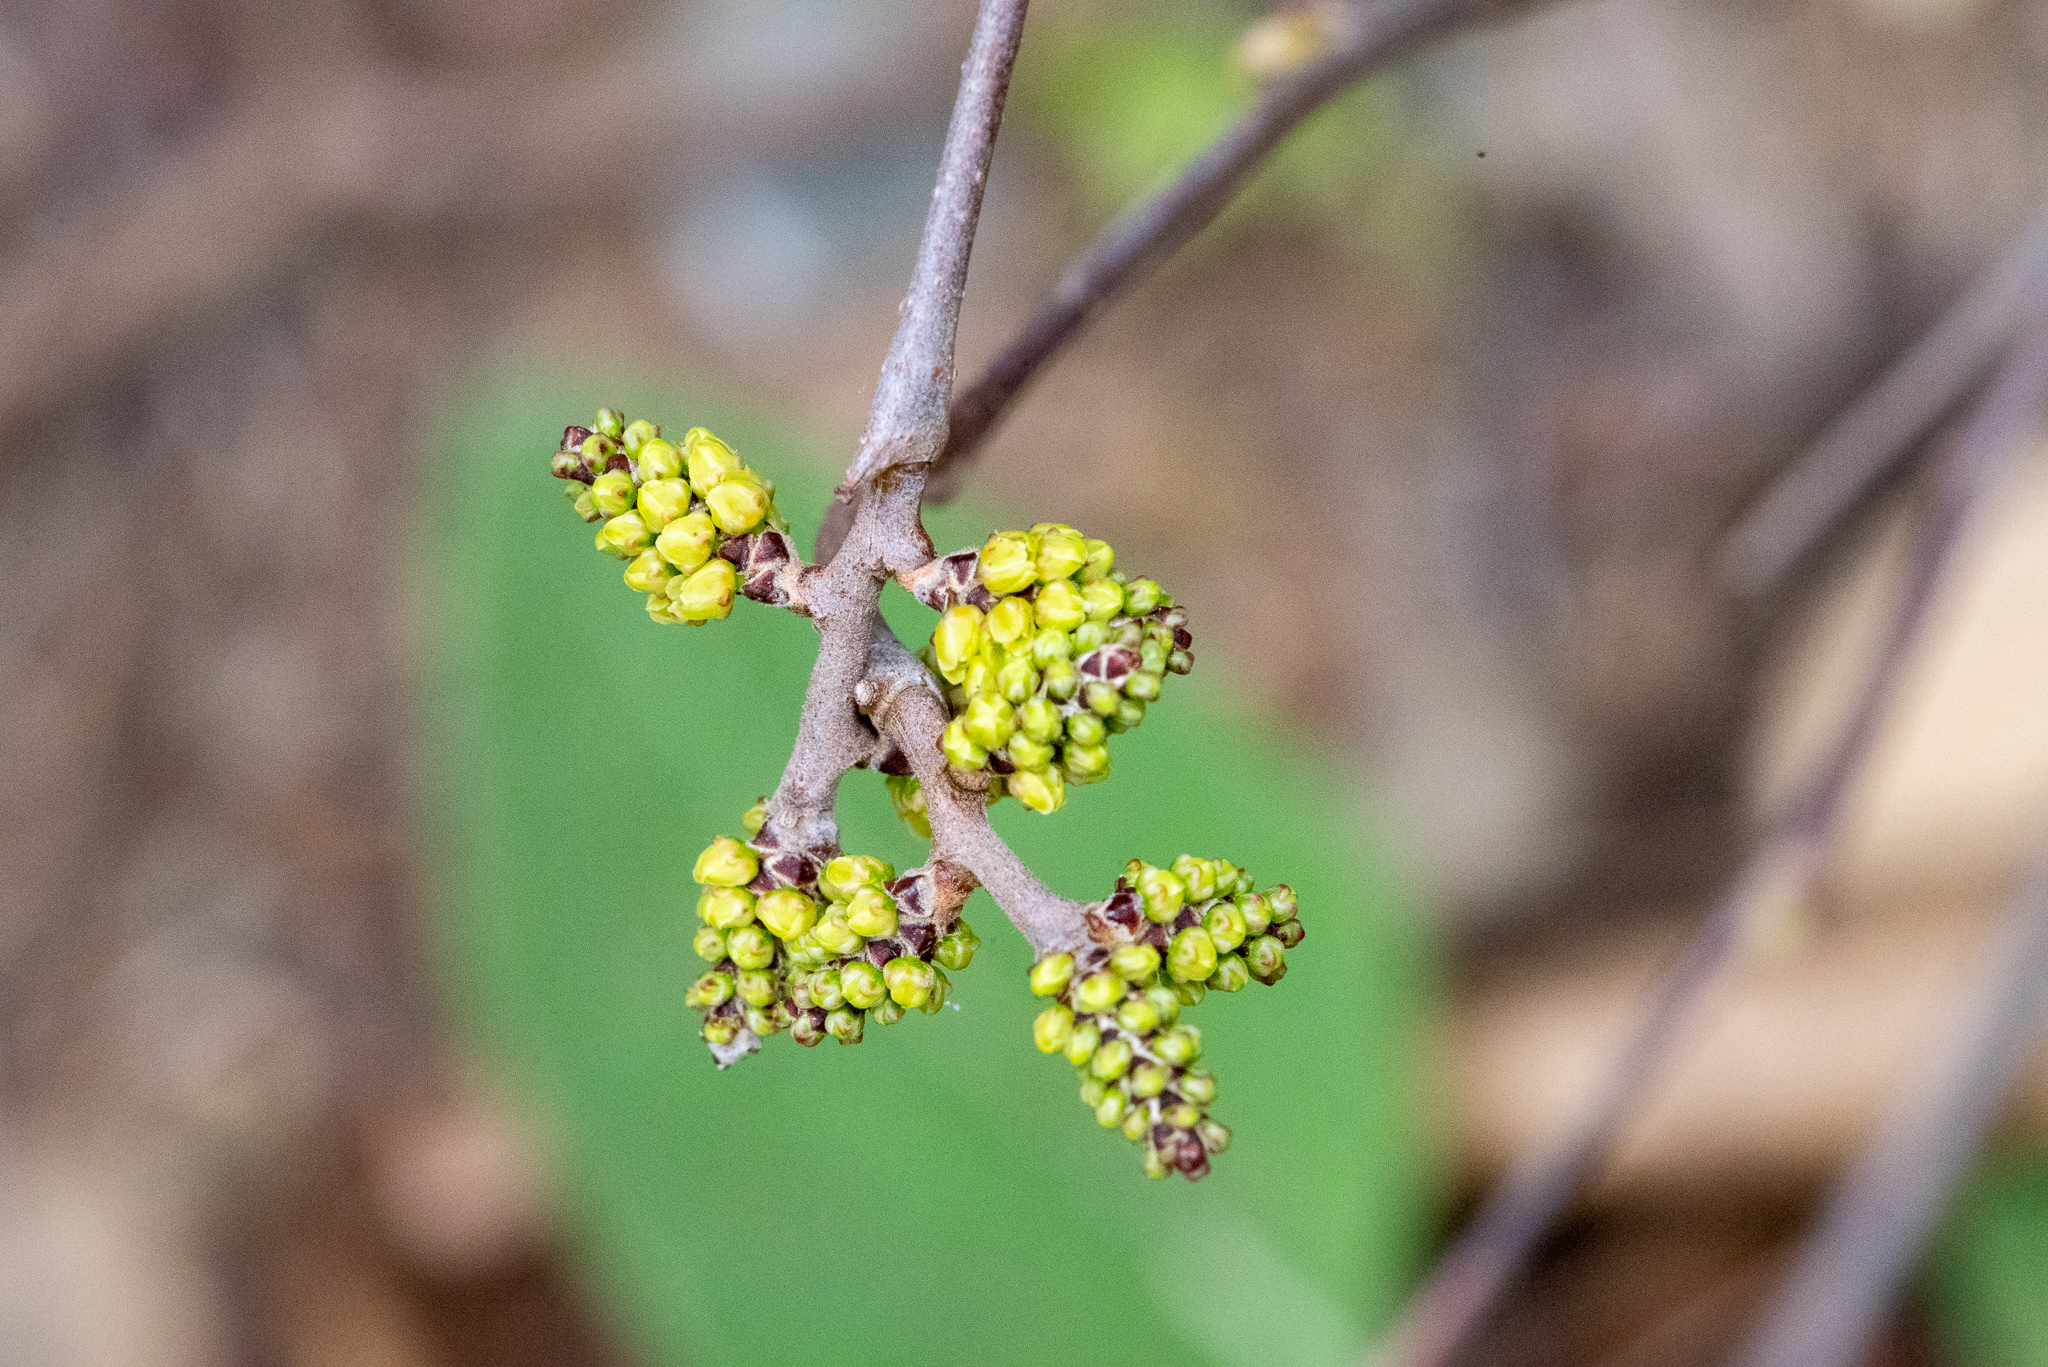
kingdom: Plantae
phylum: Tracheophyta
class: Magnoliopsida
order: Sapindales
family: Anacardiaceae
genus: Rhus
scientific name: Rhus aromatica
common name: Aromatic sumac
